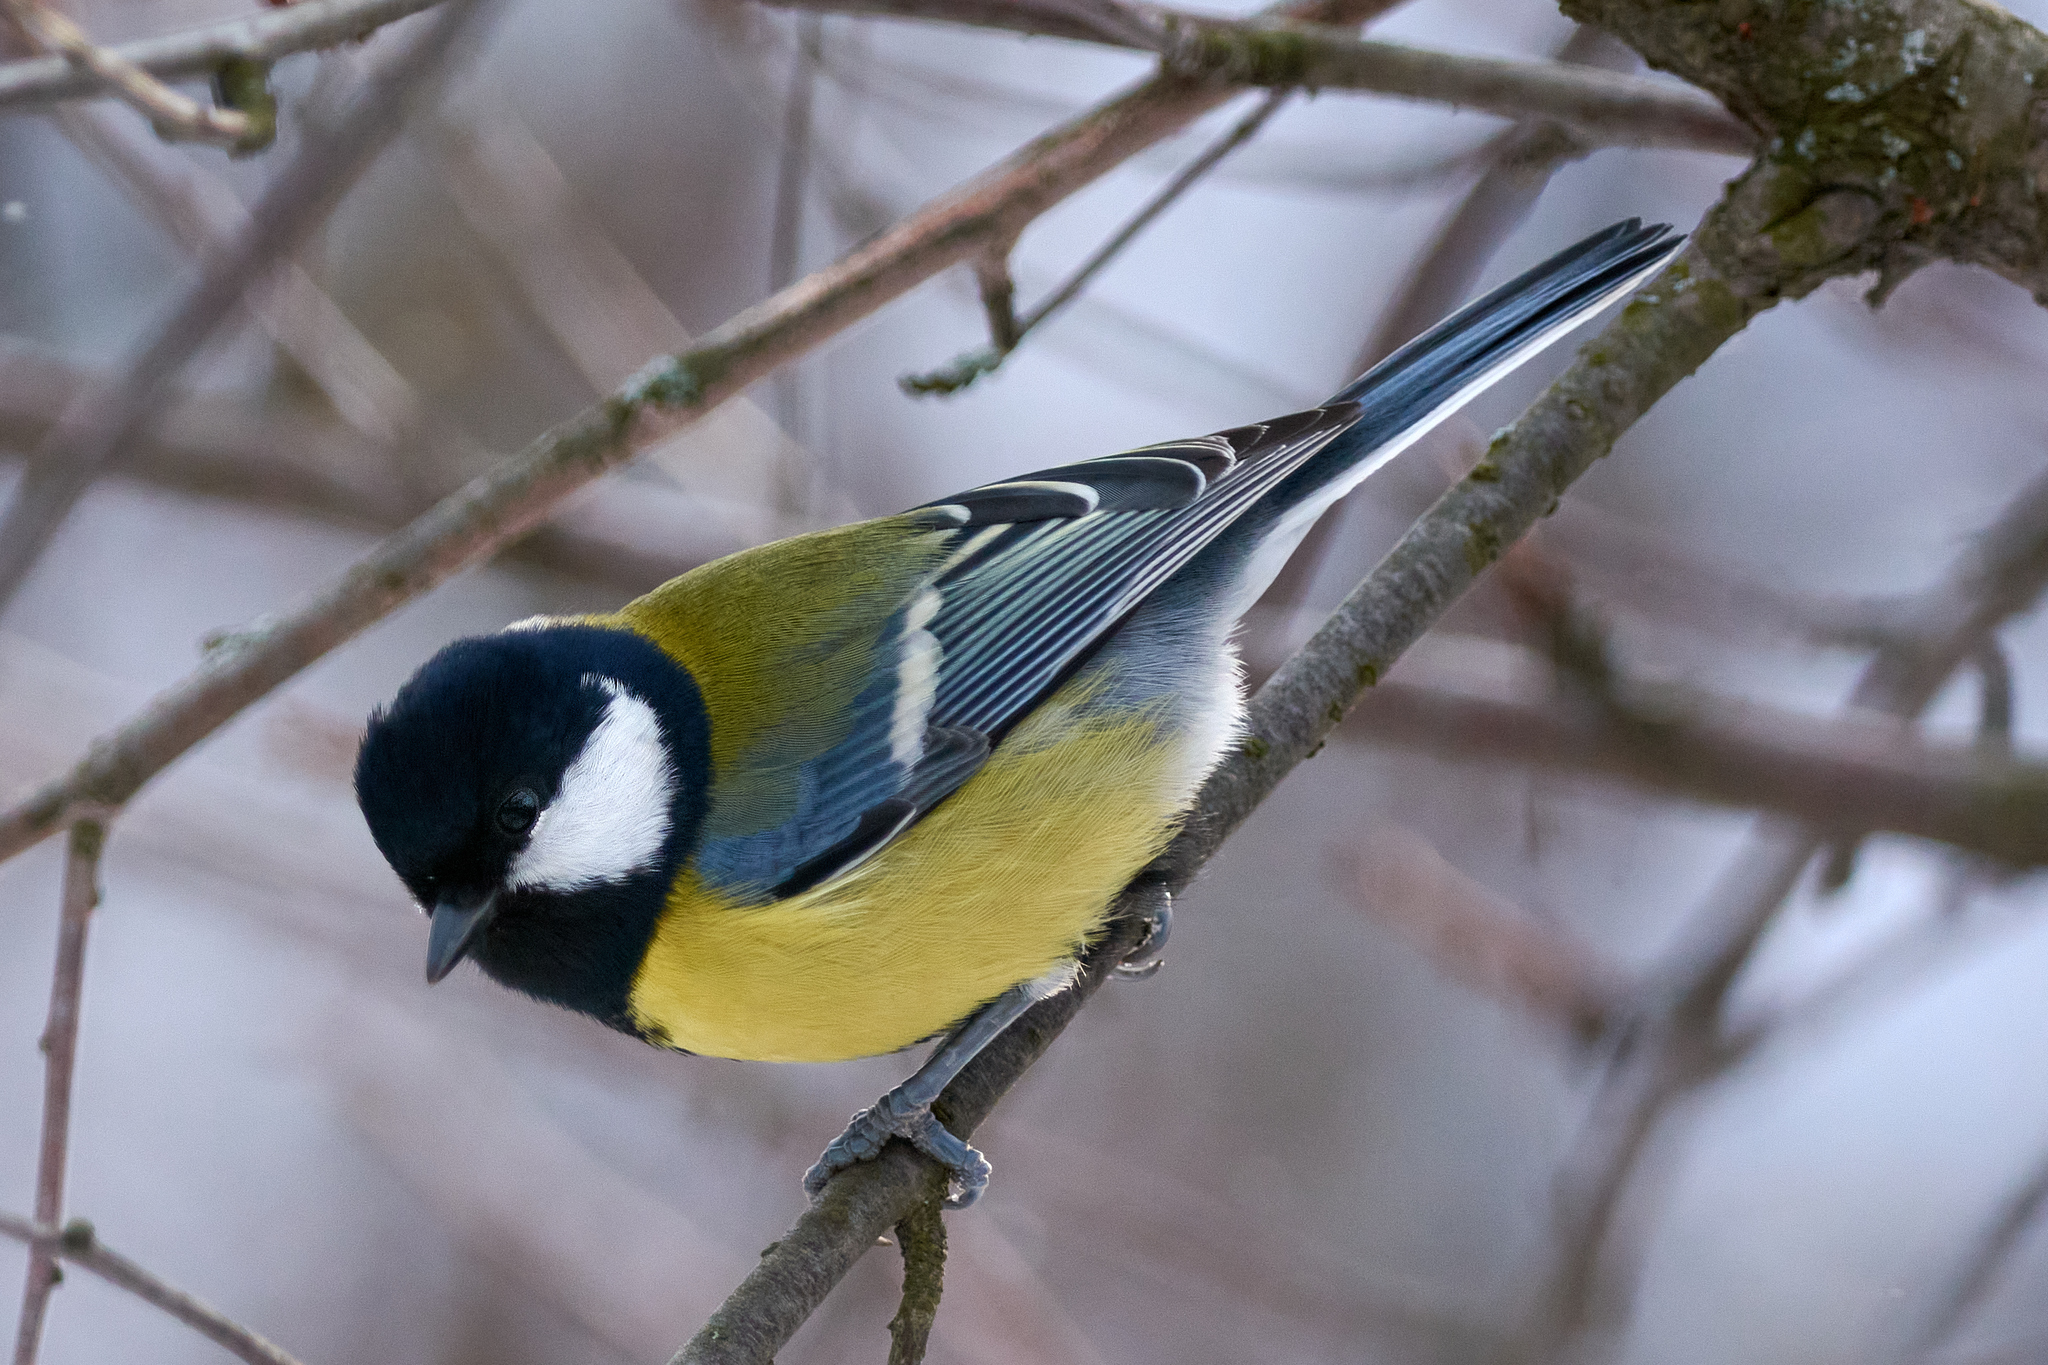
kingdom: Animalia
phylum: Chordata
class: Aves
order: Passeriformes
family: Paridae
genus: Parus
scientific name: Parus major
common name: Great tit
